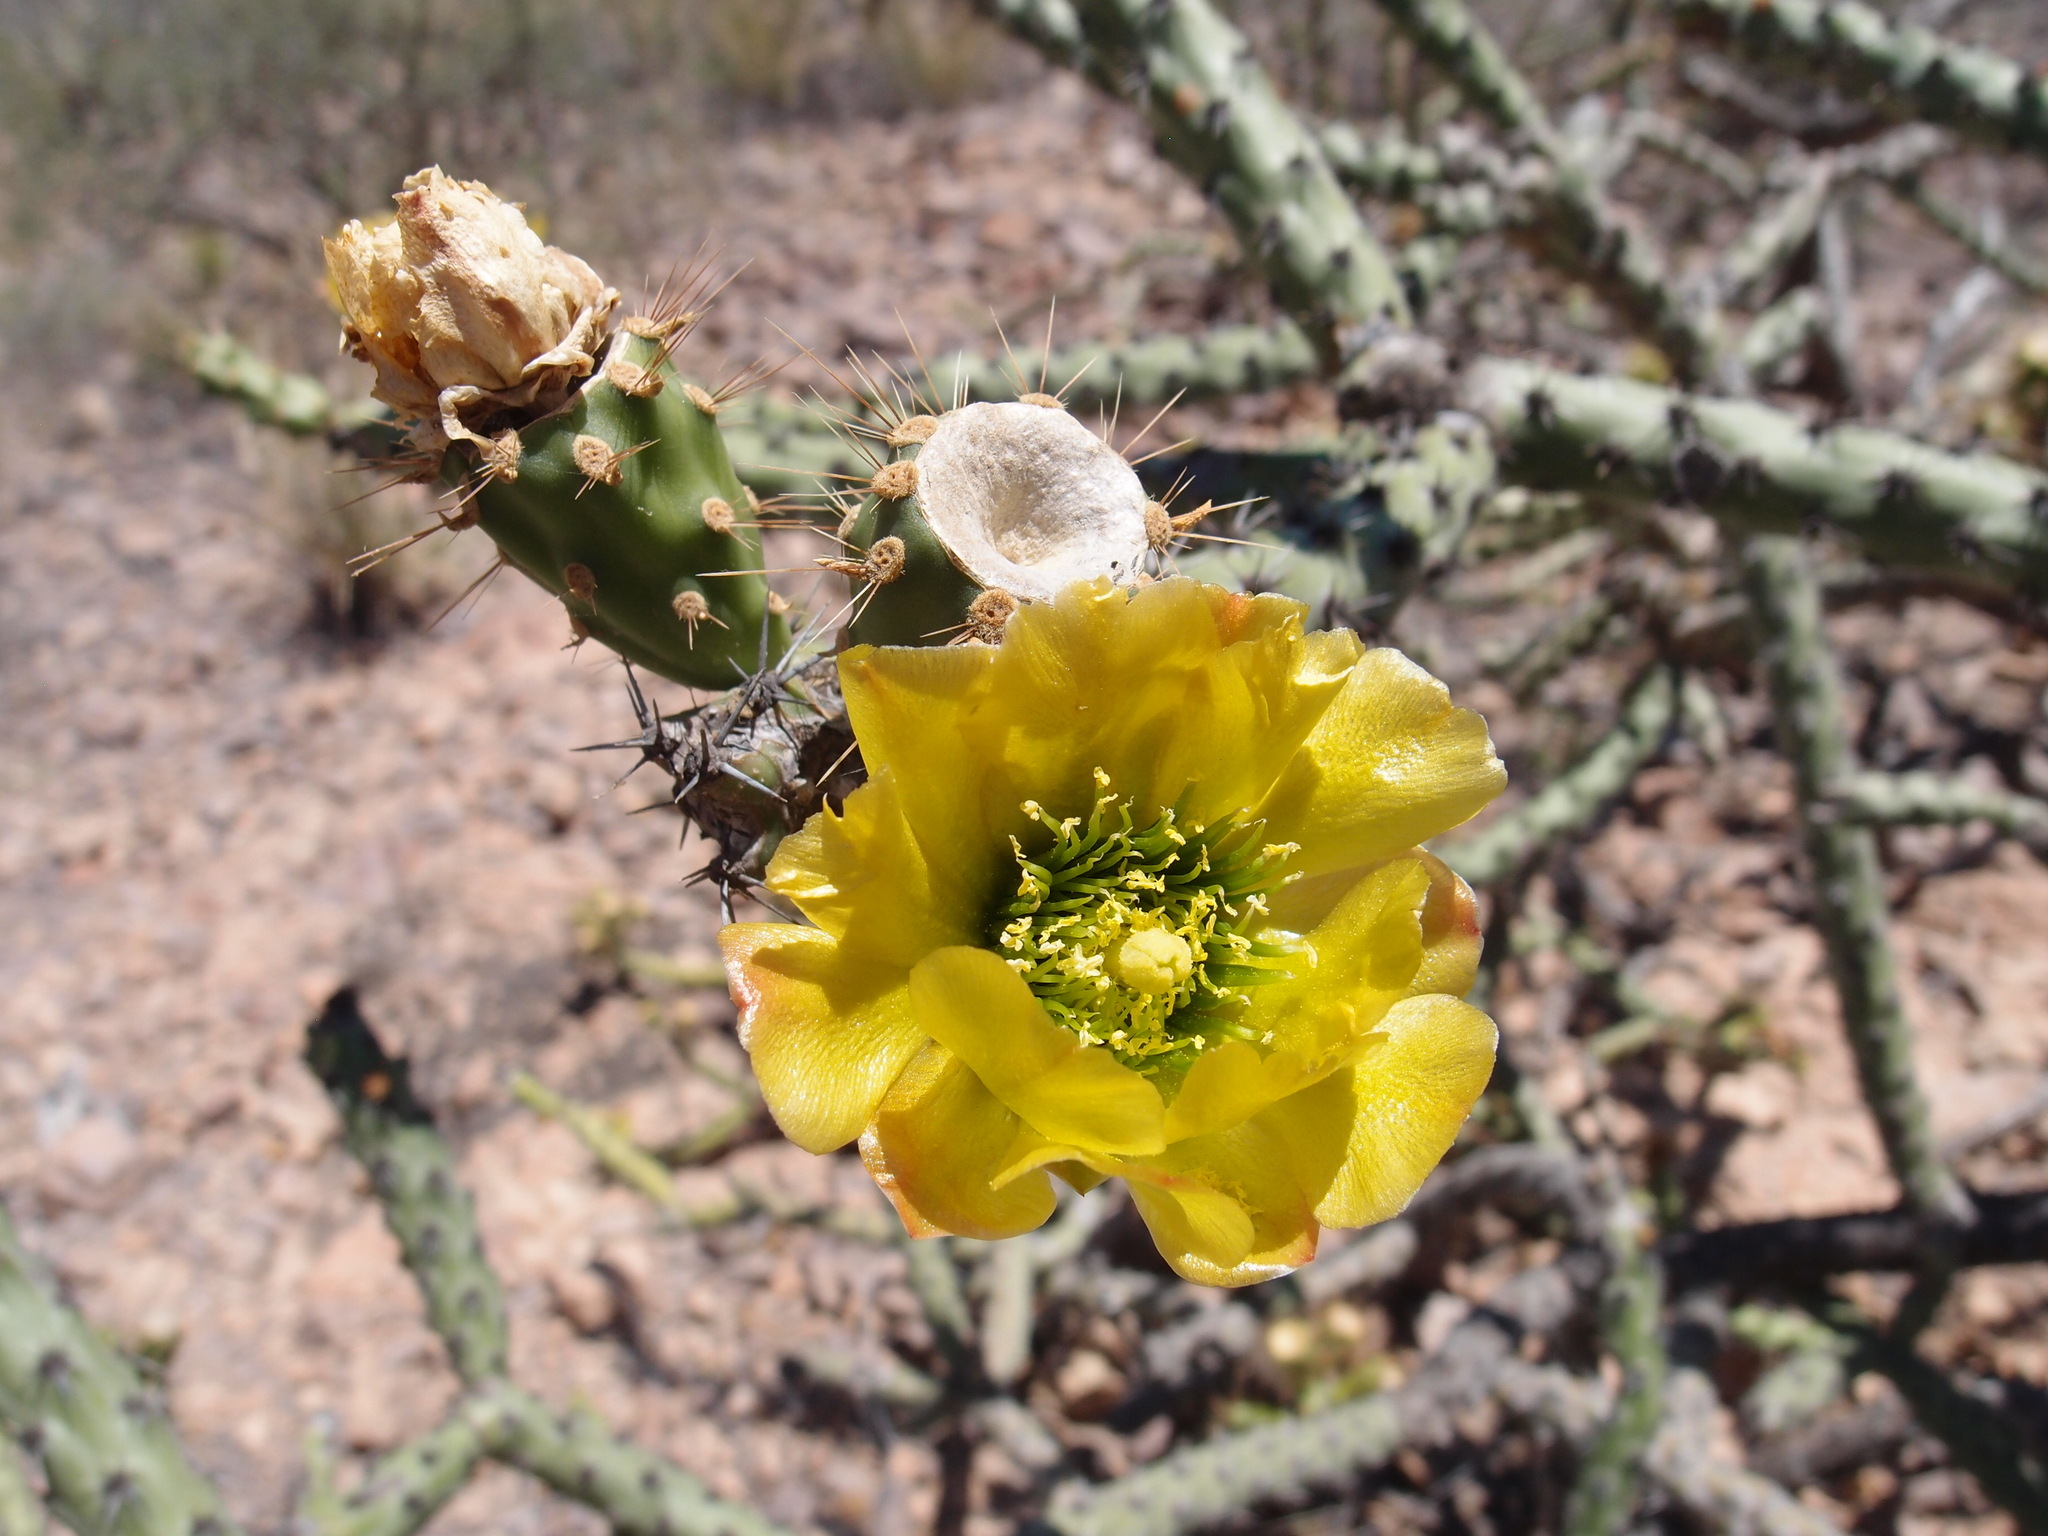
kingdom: Plantae
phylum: Tracheophyta
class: Magnoliopsida
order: Caryophyllales
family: Cactaceae
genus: Cylindropuntia
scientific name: Cylindropuntia thurberi
